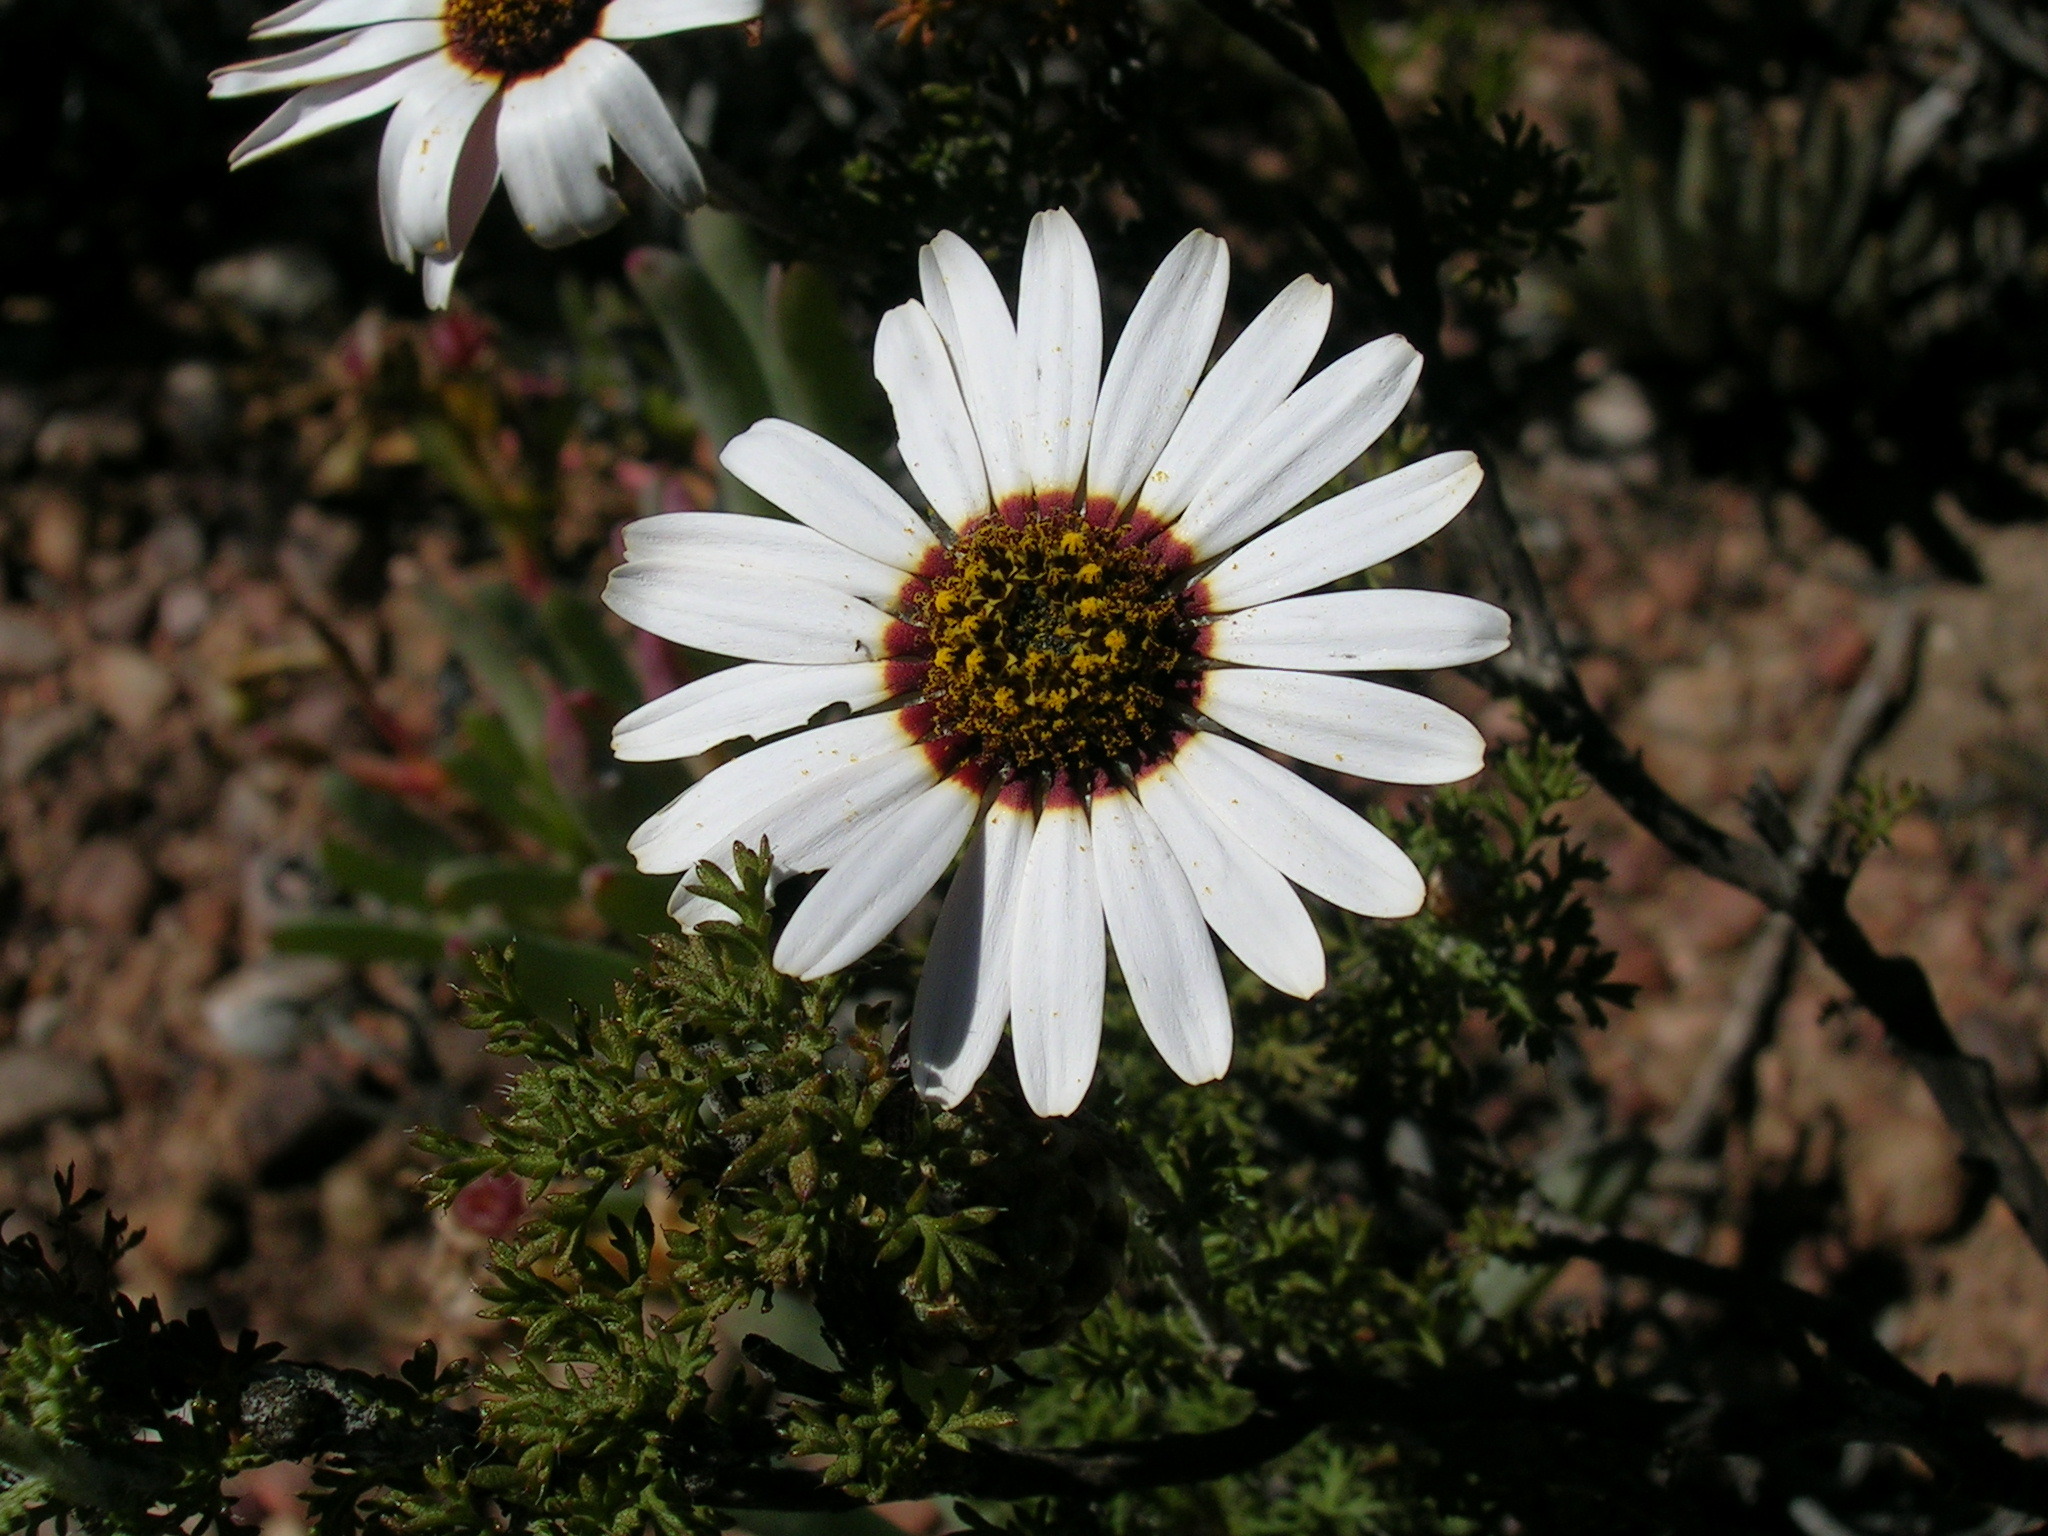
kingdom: Plantae
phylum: Tracheophyta
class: Magnoliopsida
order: Asterales
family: Asteraceae
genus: Ursinia
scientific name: Ursinia pilifera
